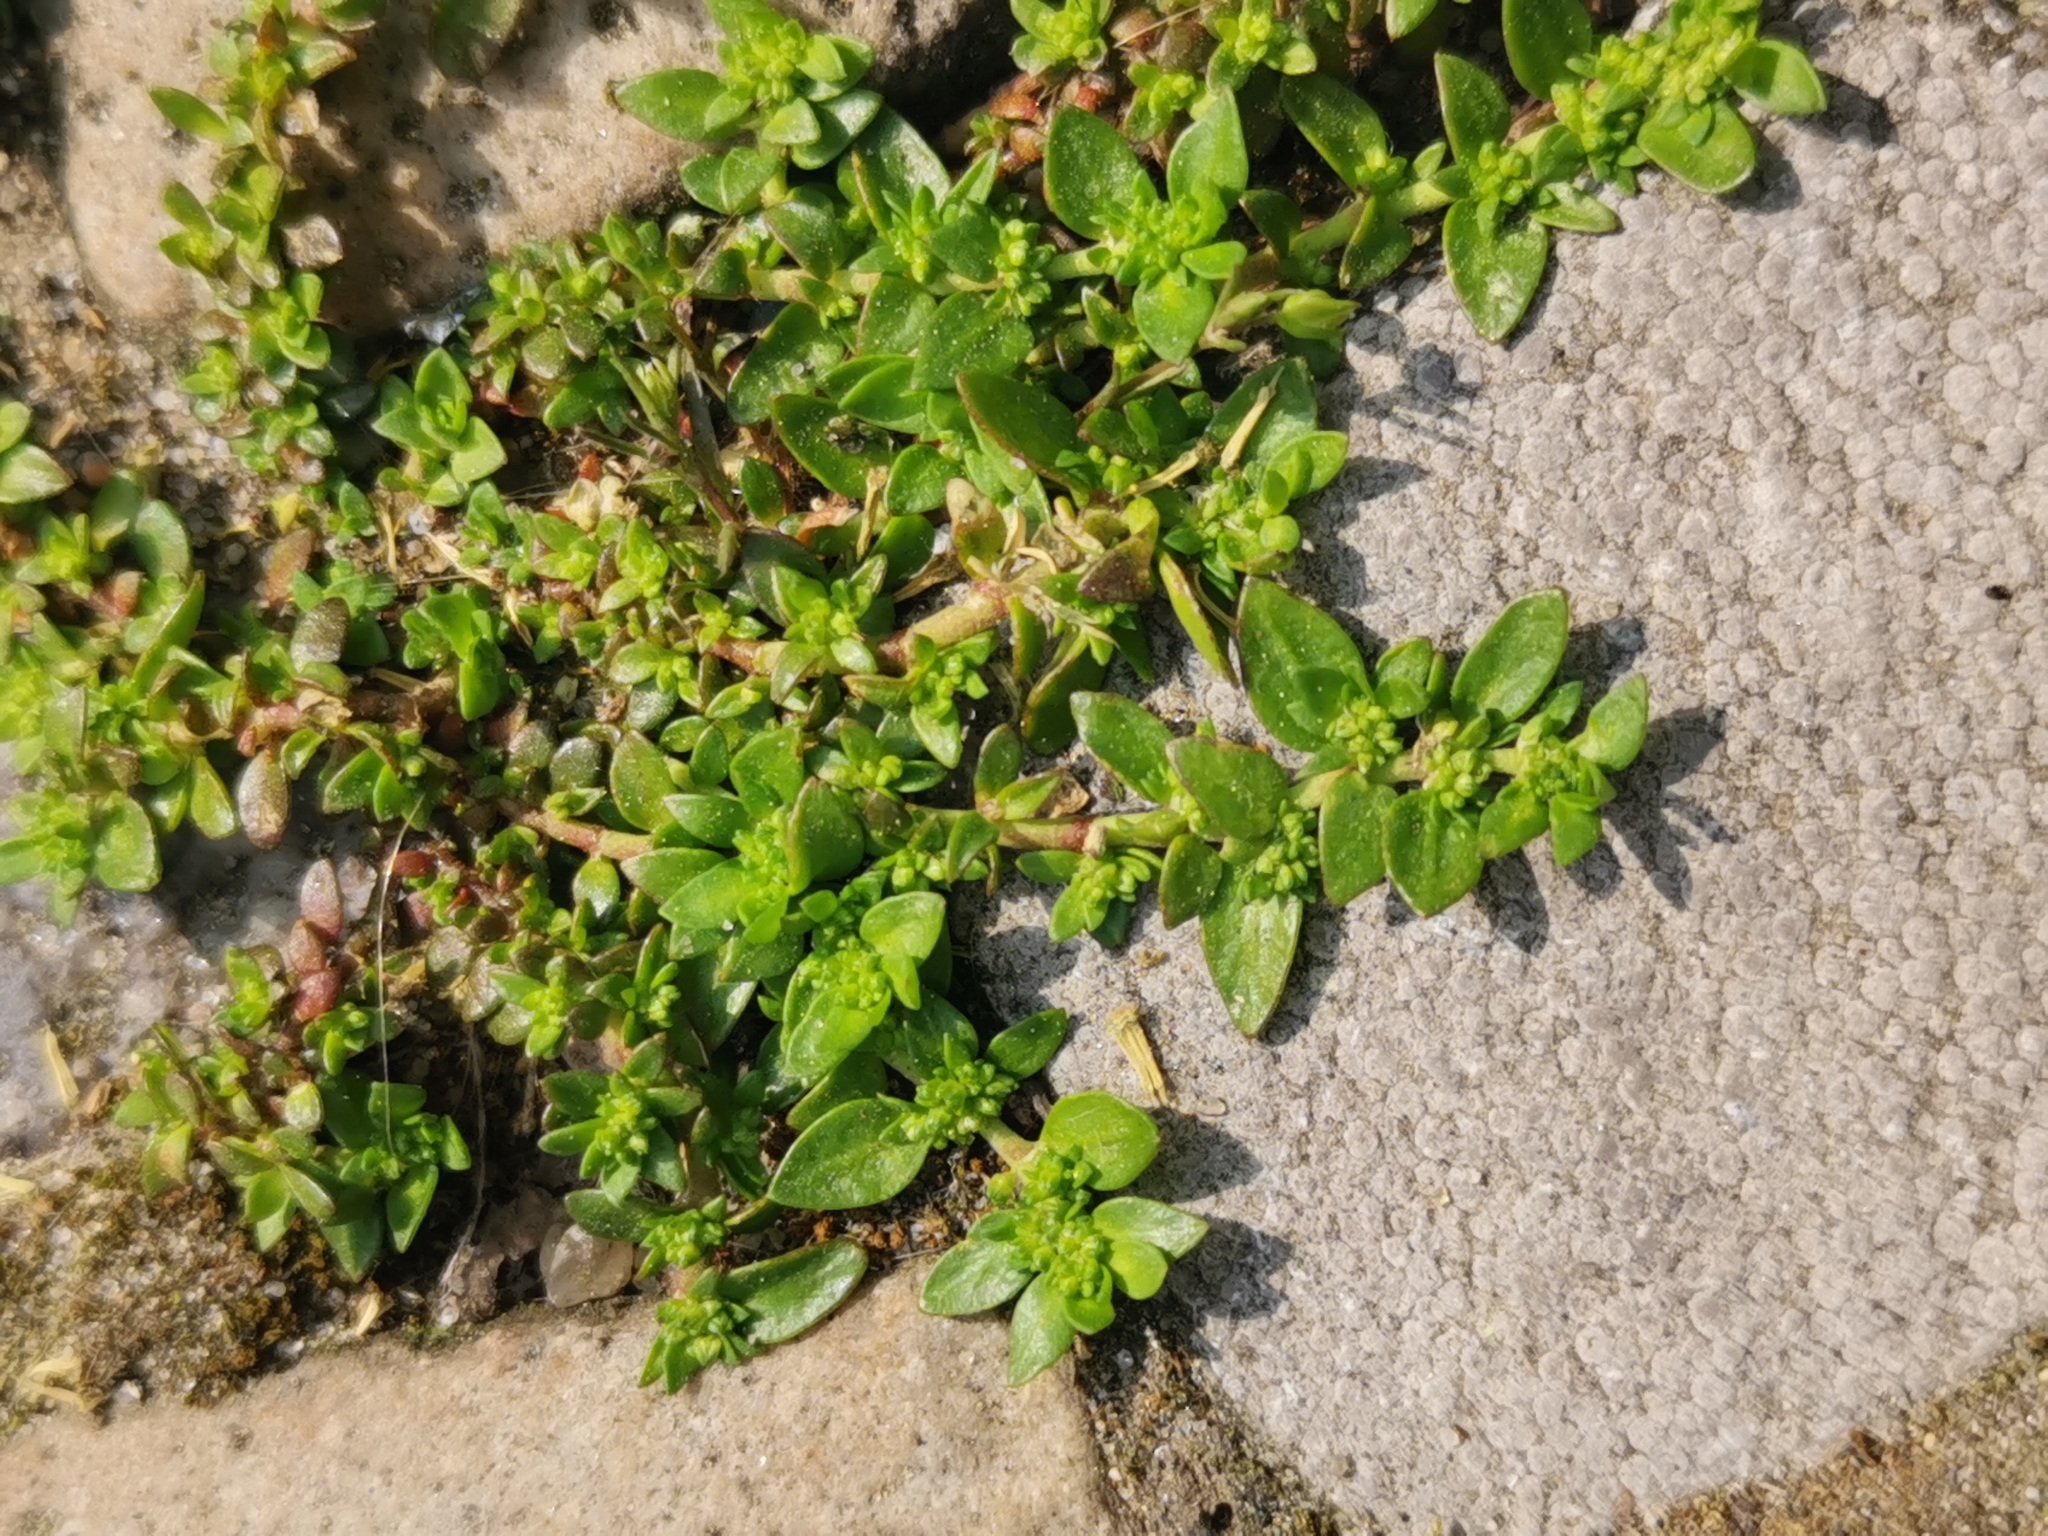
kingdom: Plantae
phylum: Tracheophyta
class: Magnoliopsida
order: Caryophyllales
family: Caryophyllaceae
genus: Herniaria
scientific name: Herniaria glabra
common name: Smooth rupturewort
